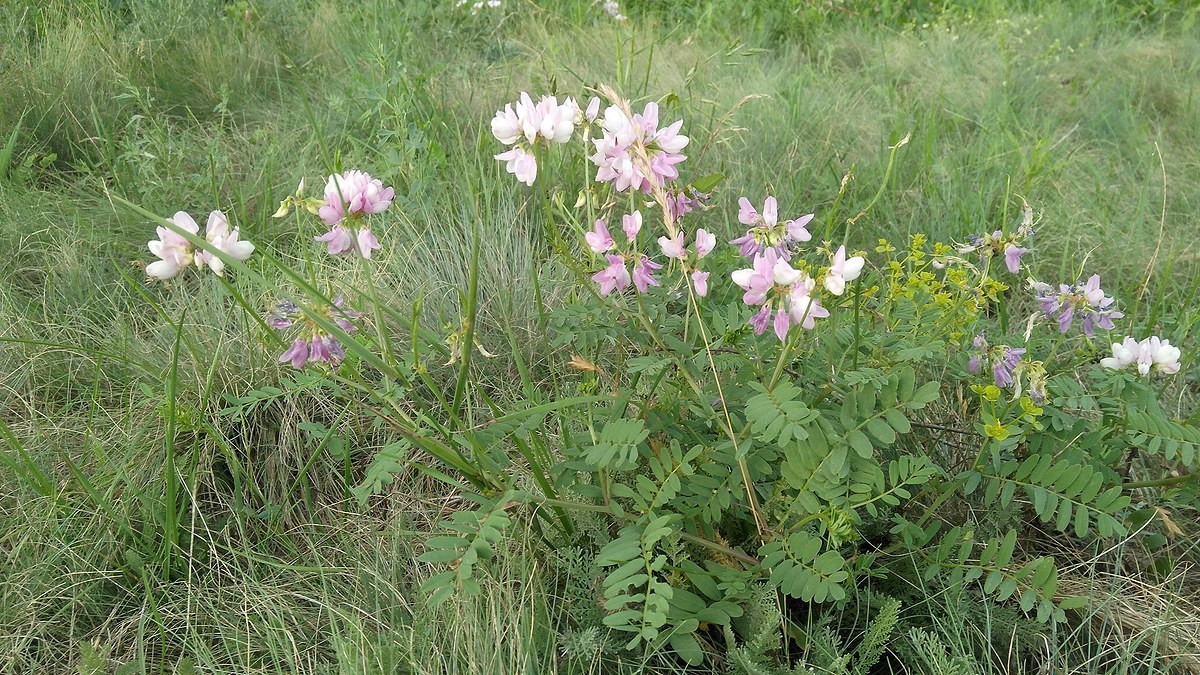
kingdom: Plantae
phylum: Tracheophyta
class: Magnoliopsida
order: Fabales
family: Fabaceae
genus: Coronilla
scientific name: Coronilla varia
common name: Crownvetch
